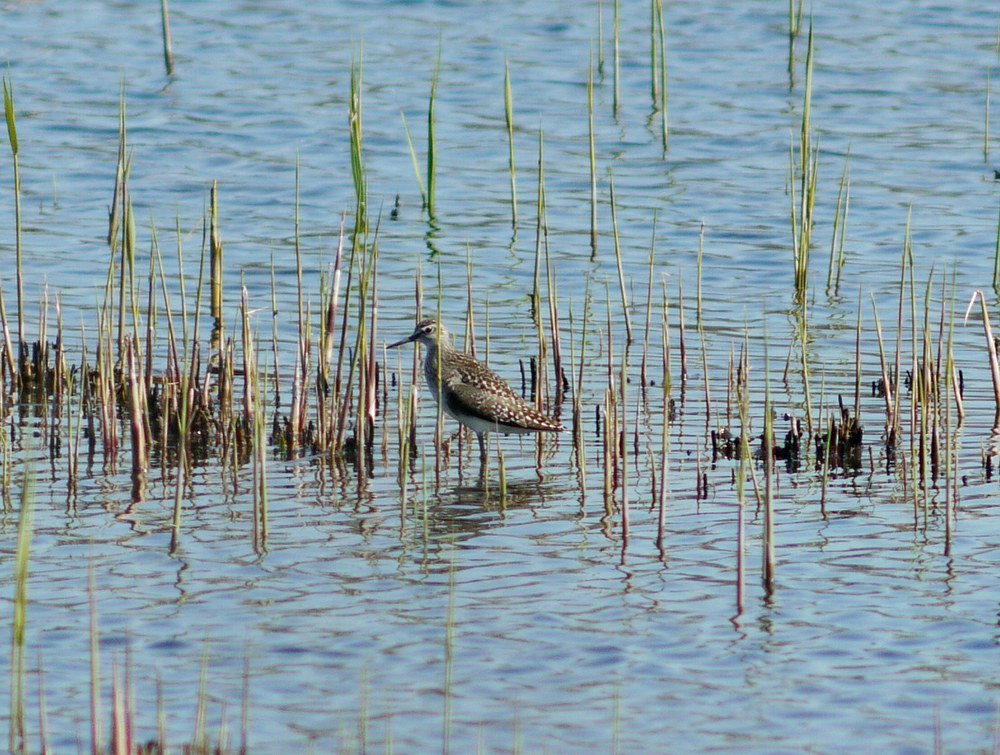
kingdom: Animalia
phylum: Chordata
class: Aves
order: Charadriiformes
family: Scolopacidae
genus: Tringa
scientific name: Tringa glareola
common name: Wood sandpiper
